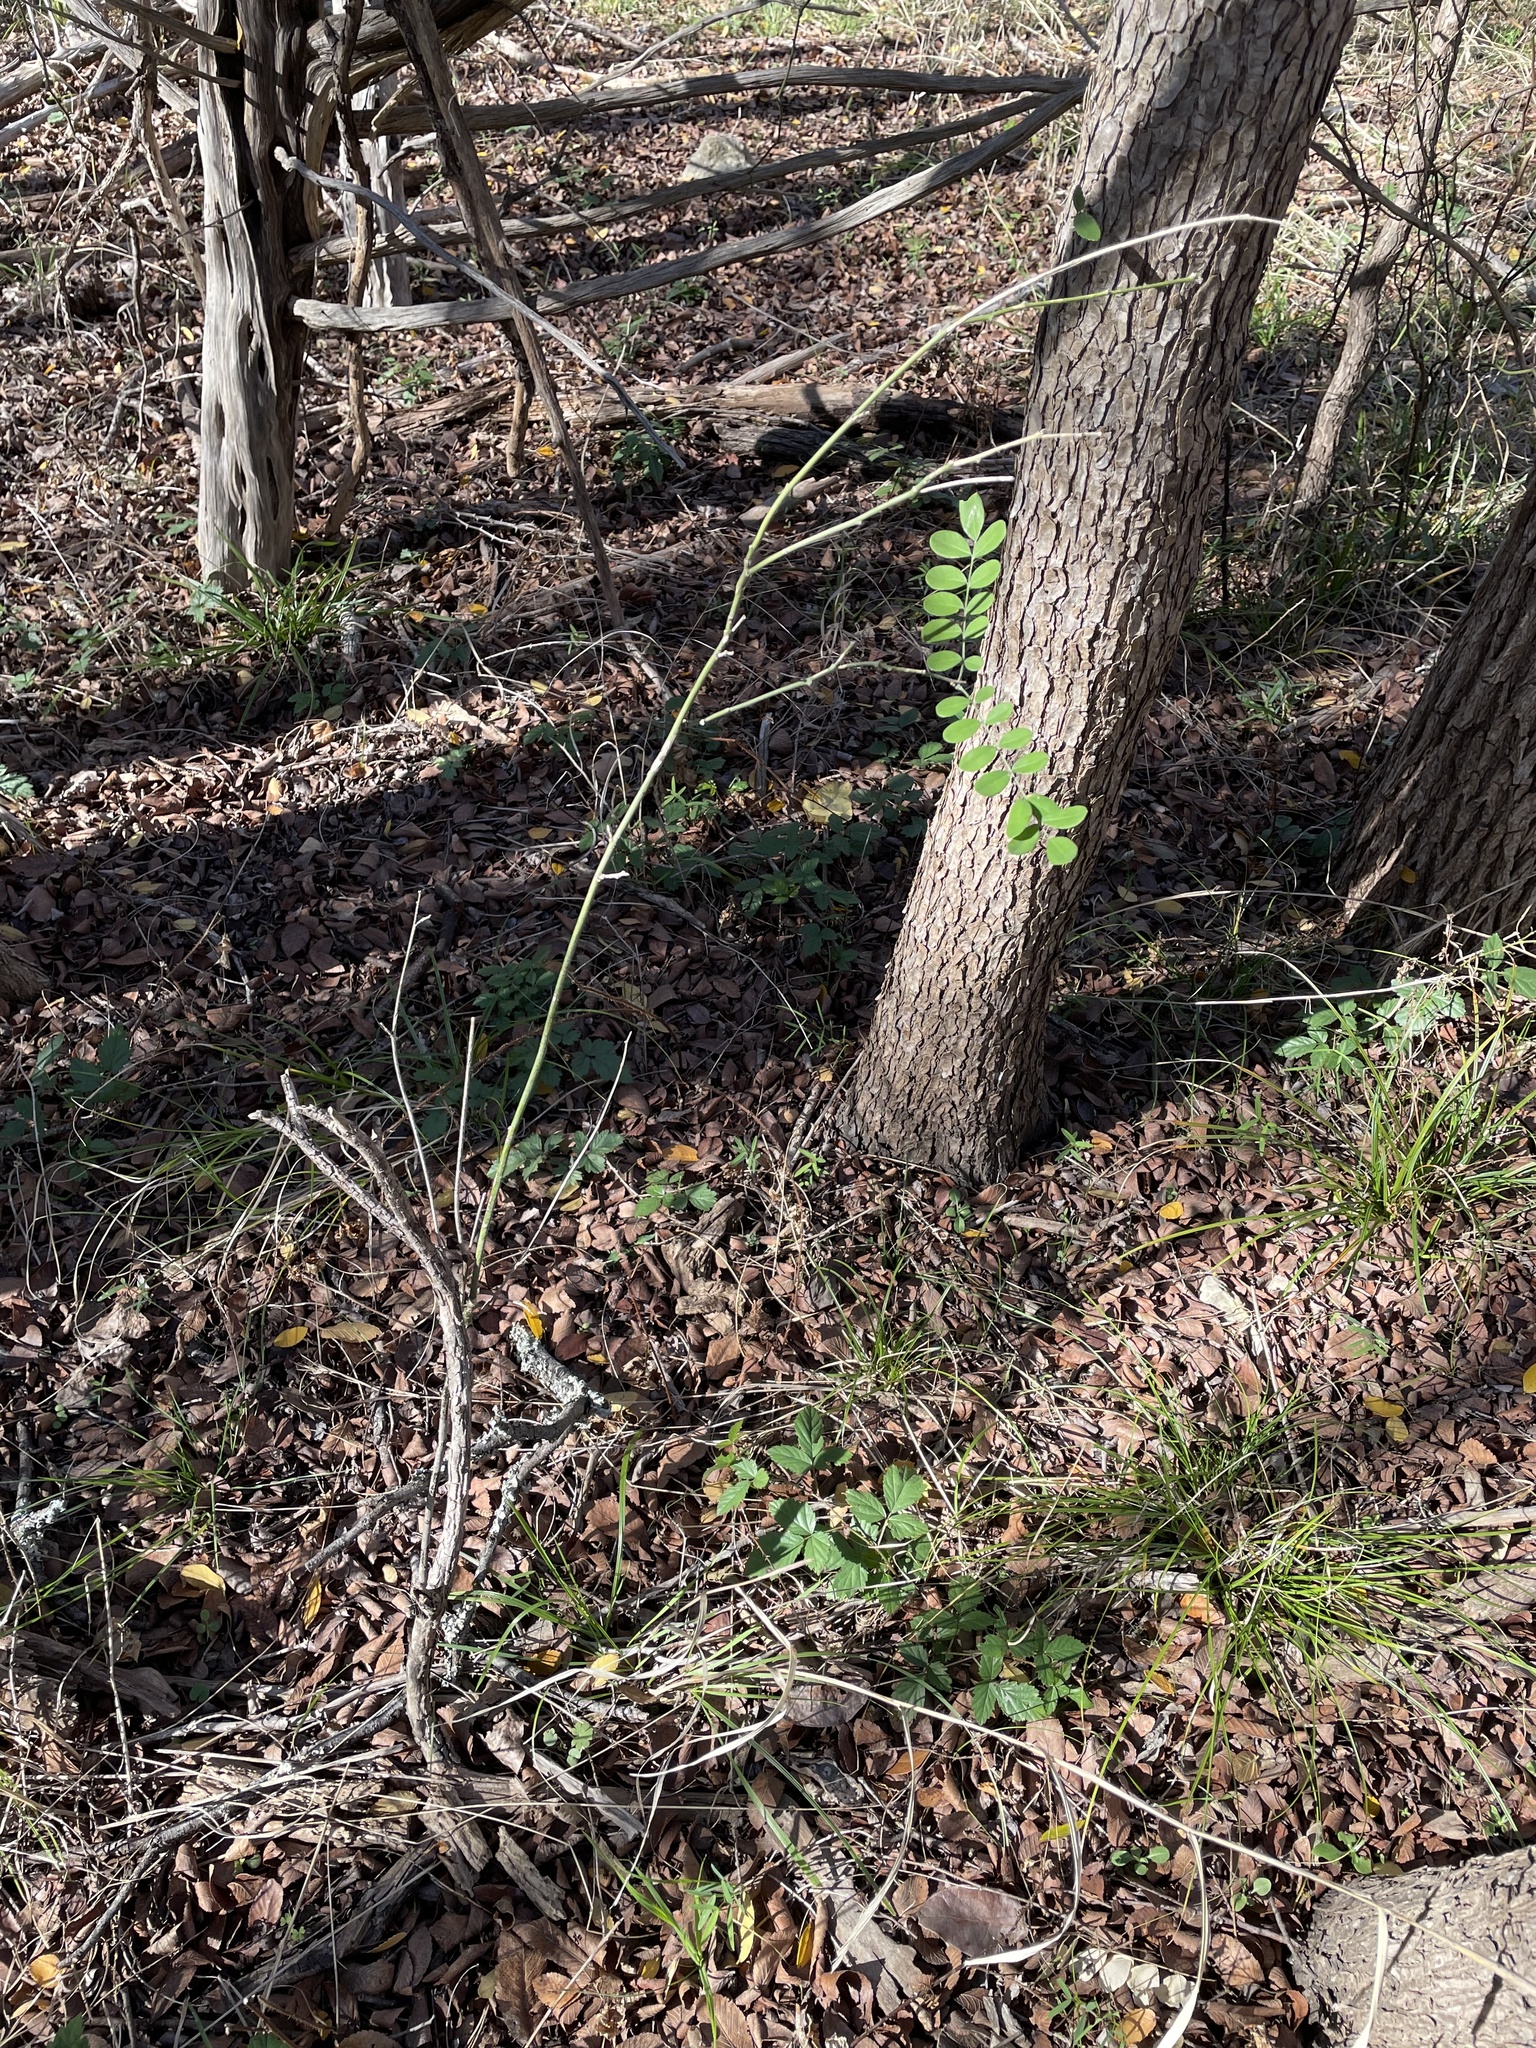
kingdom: Plantae
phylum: Tracheophyta
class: Magnoliopsida
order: Fabales
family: Fabaceae
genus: Styphnolobium
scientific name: Styphnolobium affine
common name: Texas sophora
